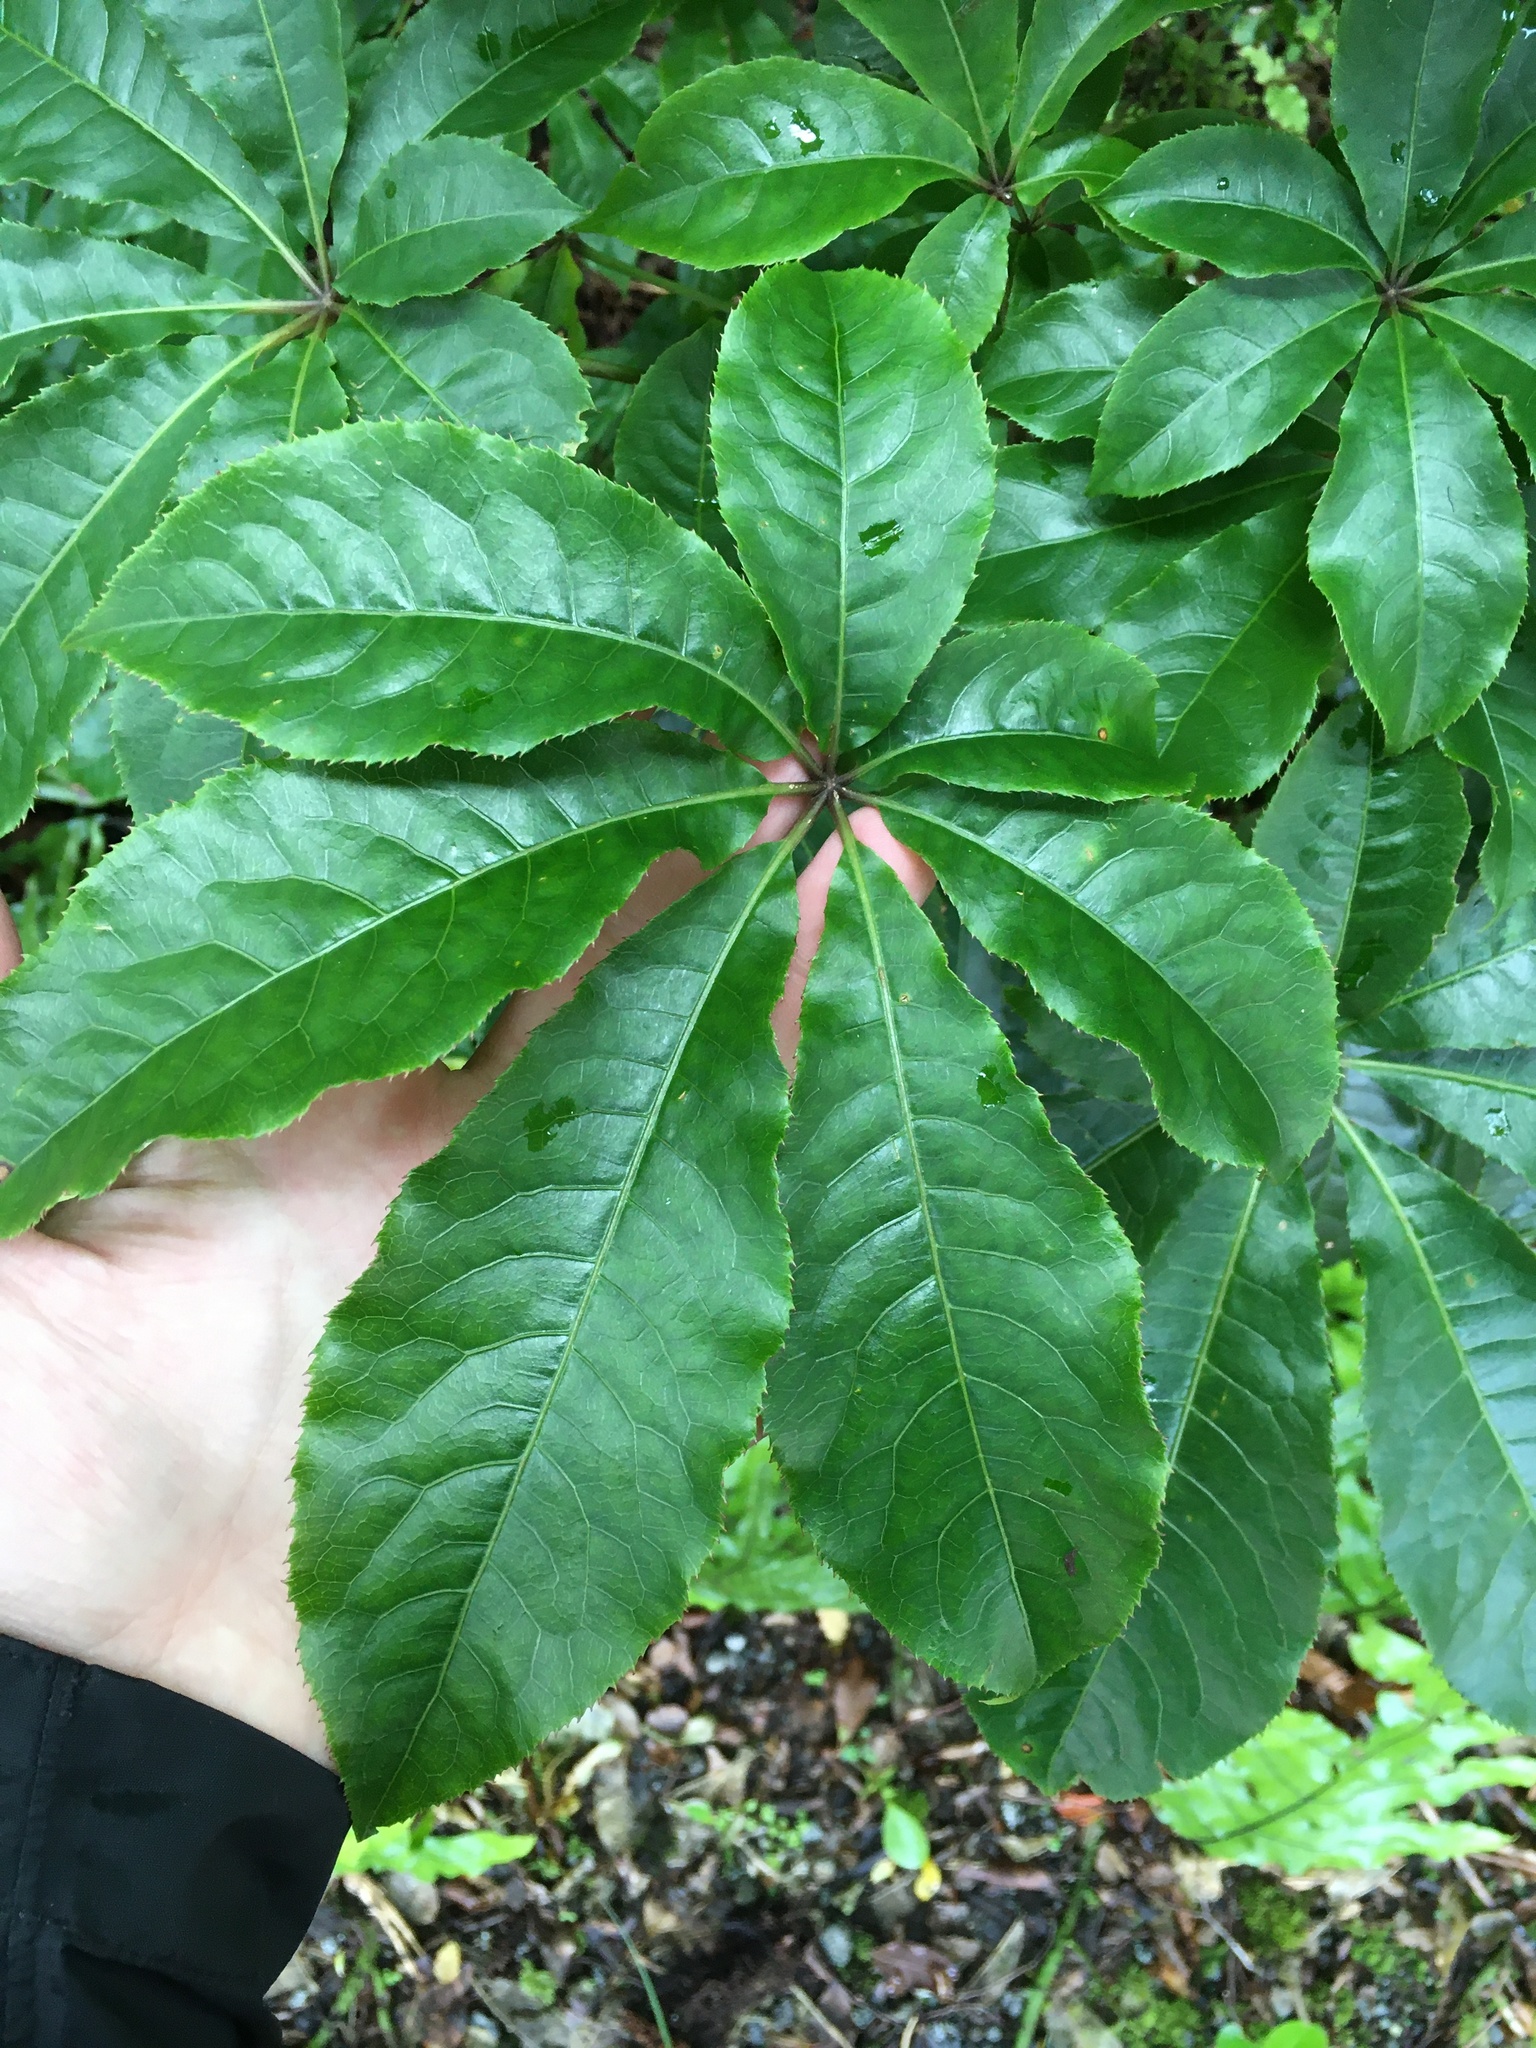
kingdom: Plantae
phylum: Tracheophyta
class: Magnoliopsida
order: Apiales
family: Araliaceae
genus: Schefflera
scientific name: Schefflera digitata
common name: Pate
